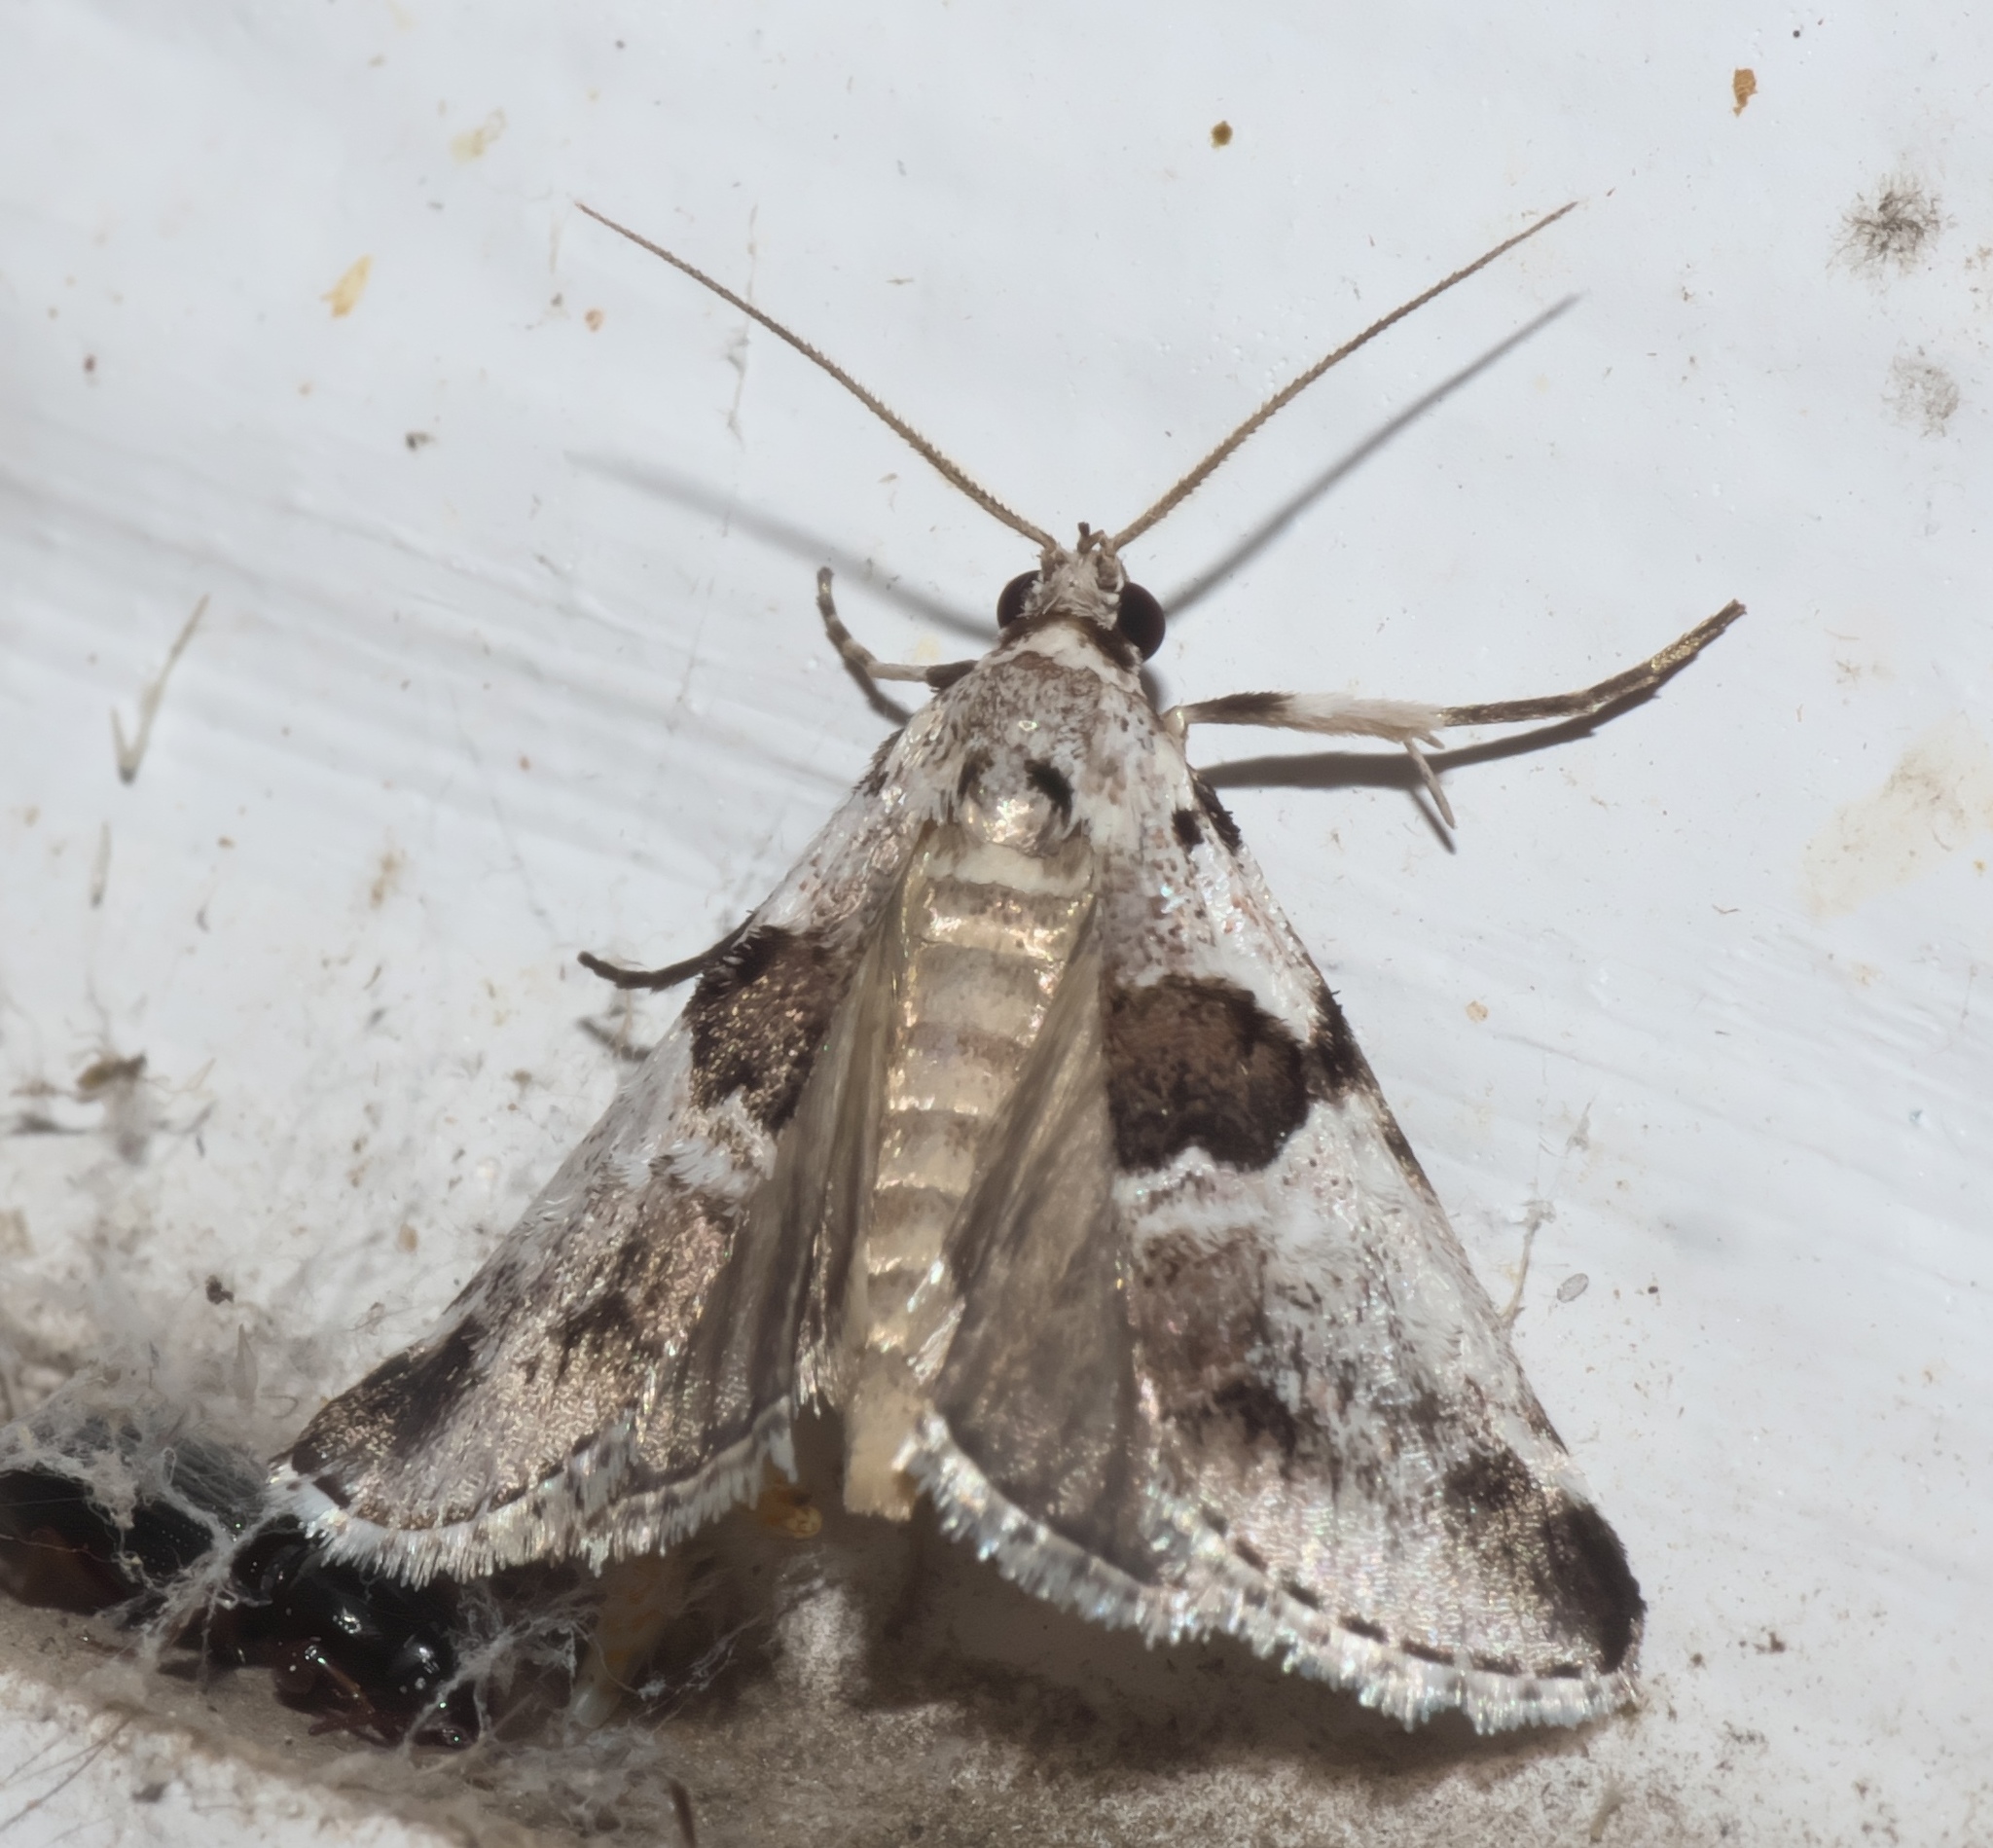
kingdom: Animalia
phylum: Arthropoda
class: Insecta
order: Lepidoptera
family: Pyralidae
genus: Tallula
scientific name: Tallula atrifascialis
